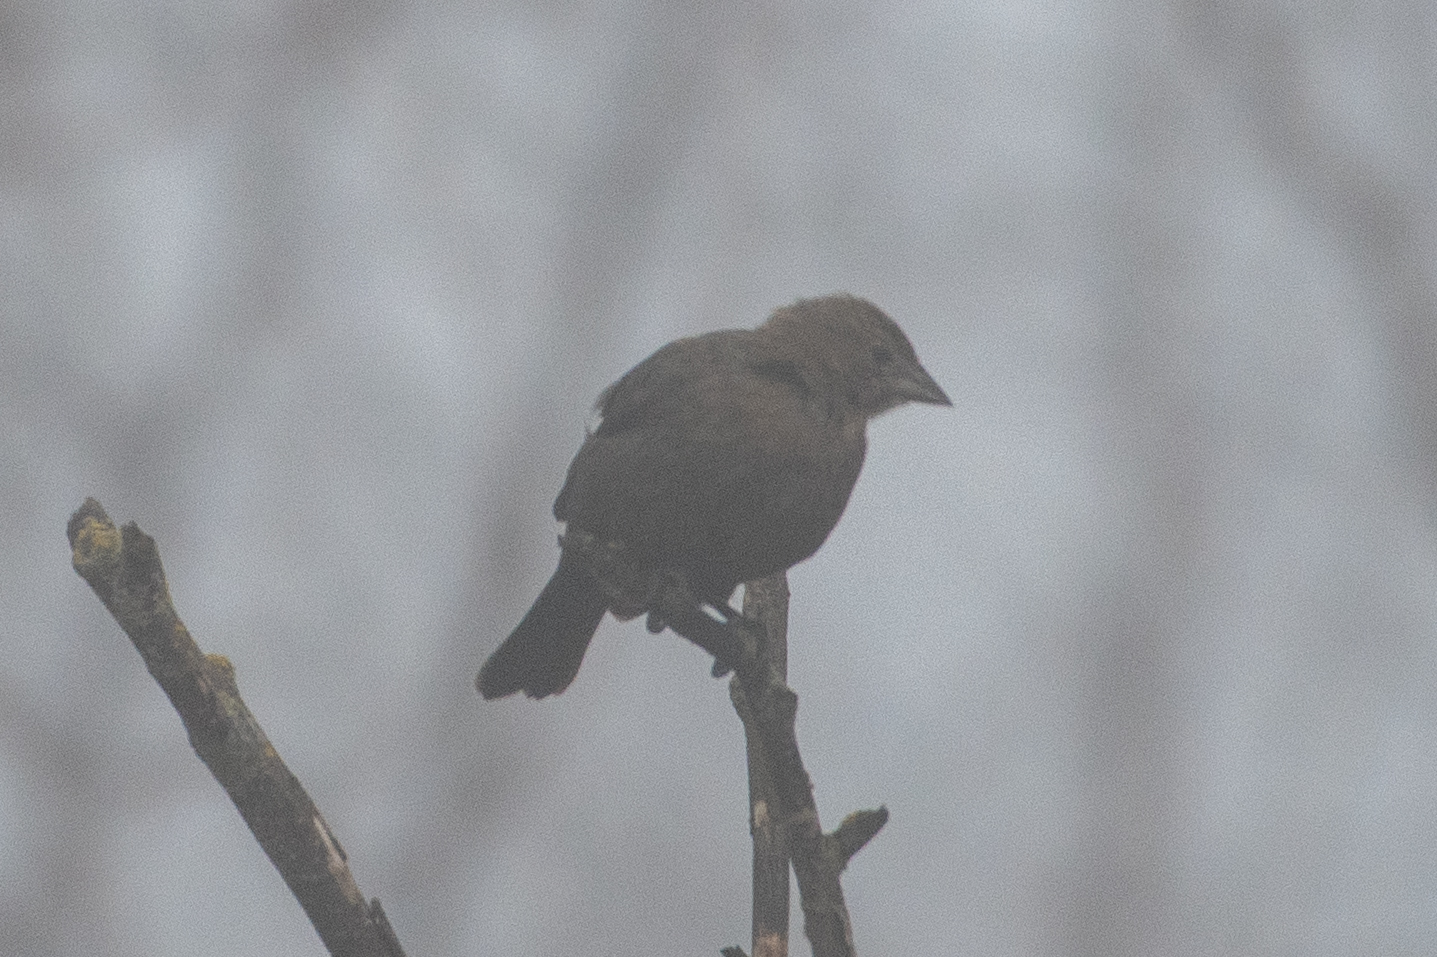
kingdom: Animalia
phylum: Chordata
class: Aves
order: Passeriformes
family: Icteridae
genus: Molothrus
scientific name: Molothrus ater
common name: Brown-headed cowbird
